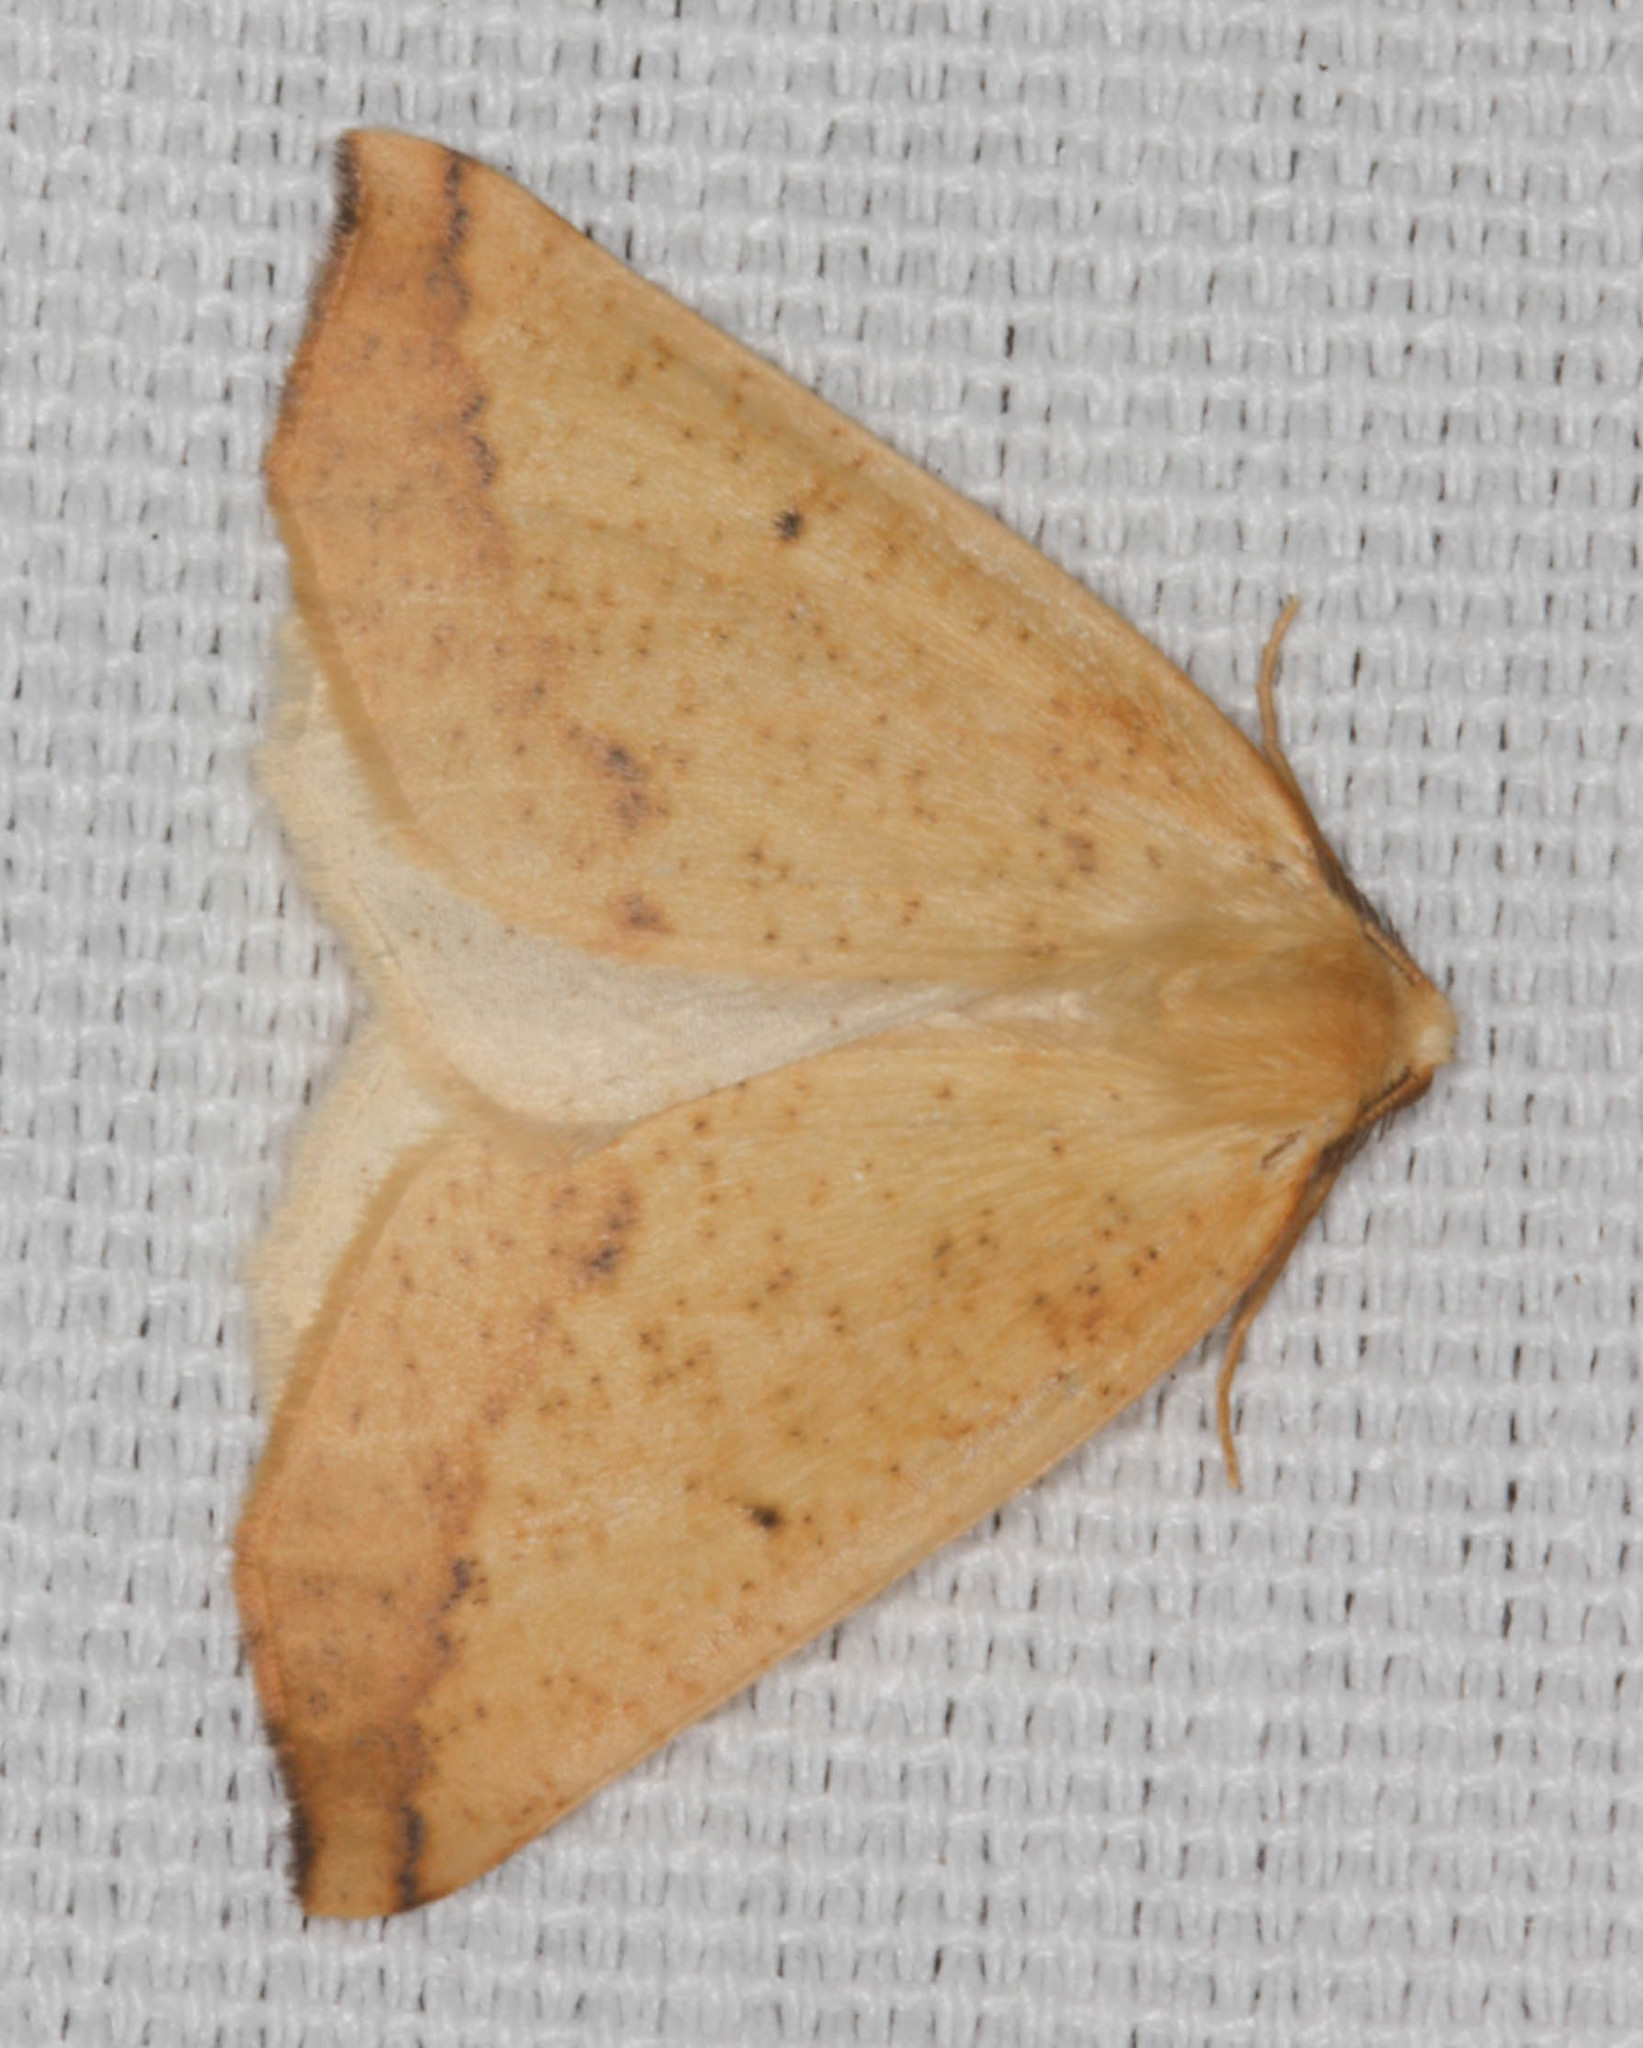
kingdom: Animalia
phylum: Arthropoda
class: Insecta
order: Lepidoptera
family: Geometridae
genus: Neoterpes
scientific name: Neoterpes edwardsata
